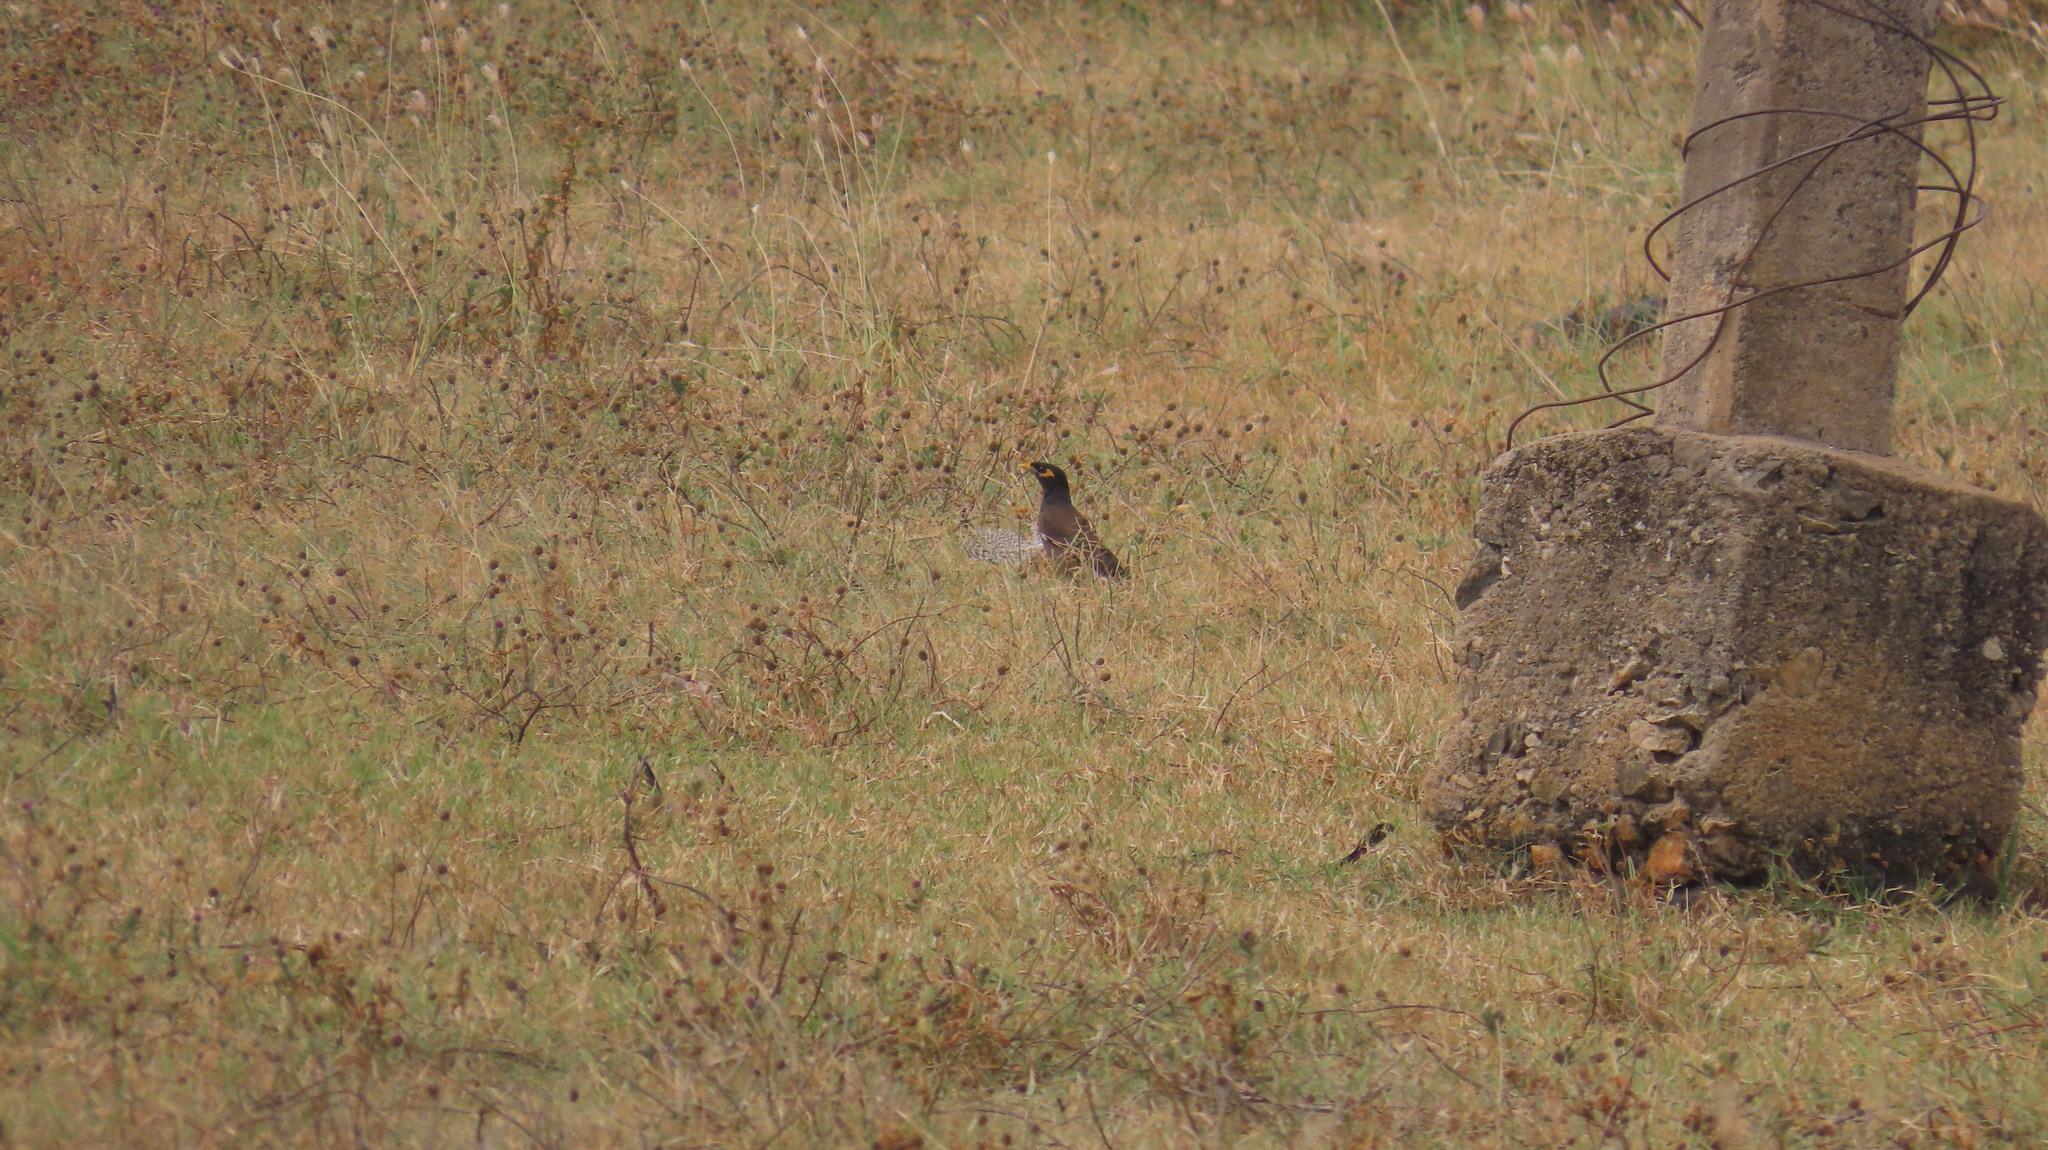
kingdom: Animalia
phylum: Chordata
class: Aves
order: Passeriformes
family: Sturnidae
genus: Acridotheres
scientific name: Acridotheres tristis
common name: Common myna
